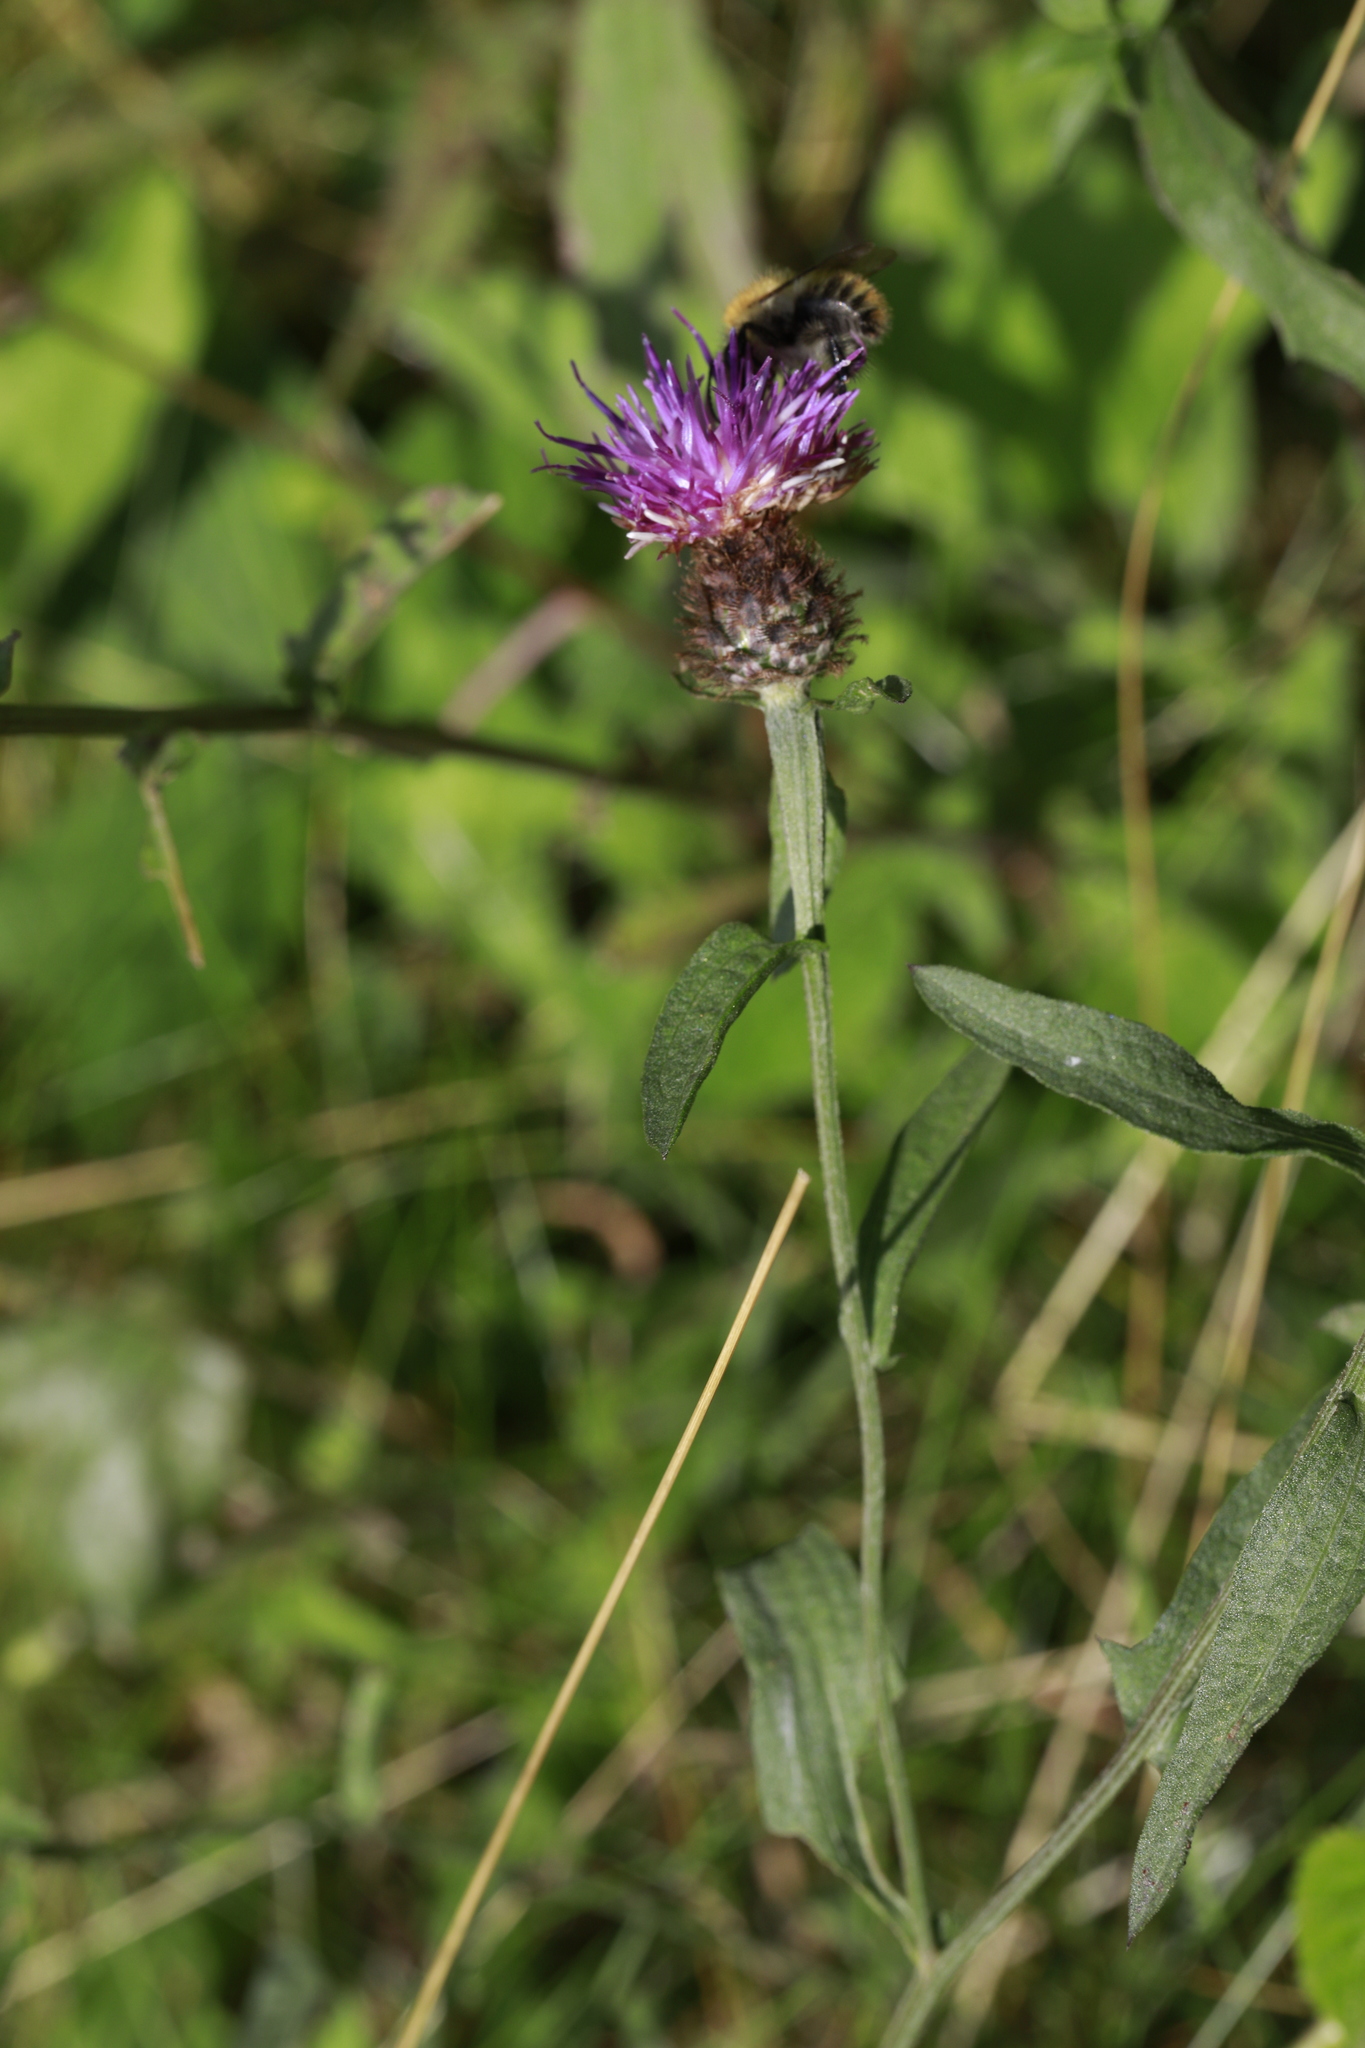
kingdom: Plantae
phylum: Tracheophyta
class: Magnoliopsida
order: Asterales
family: Asteraceae
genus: Centaurea
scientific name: Centaurea nigra
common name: Lesser knapweed
